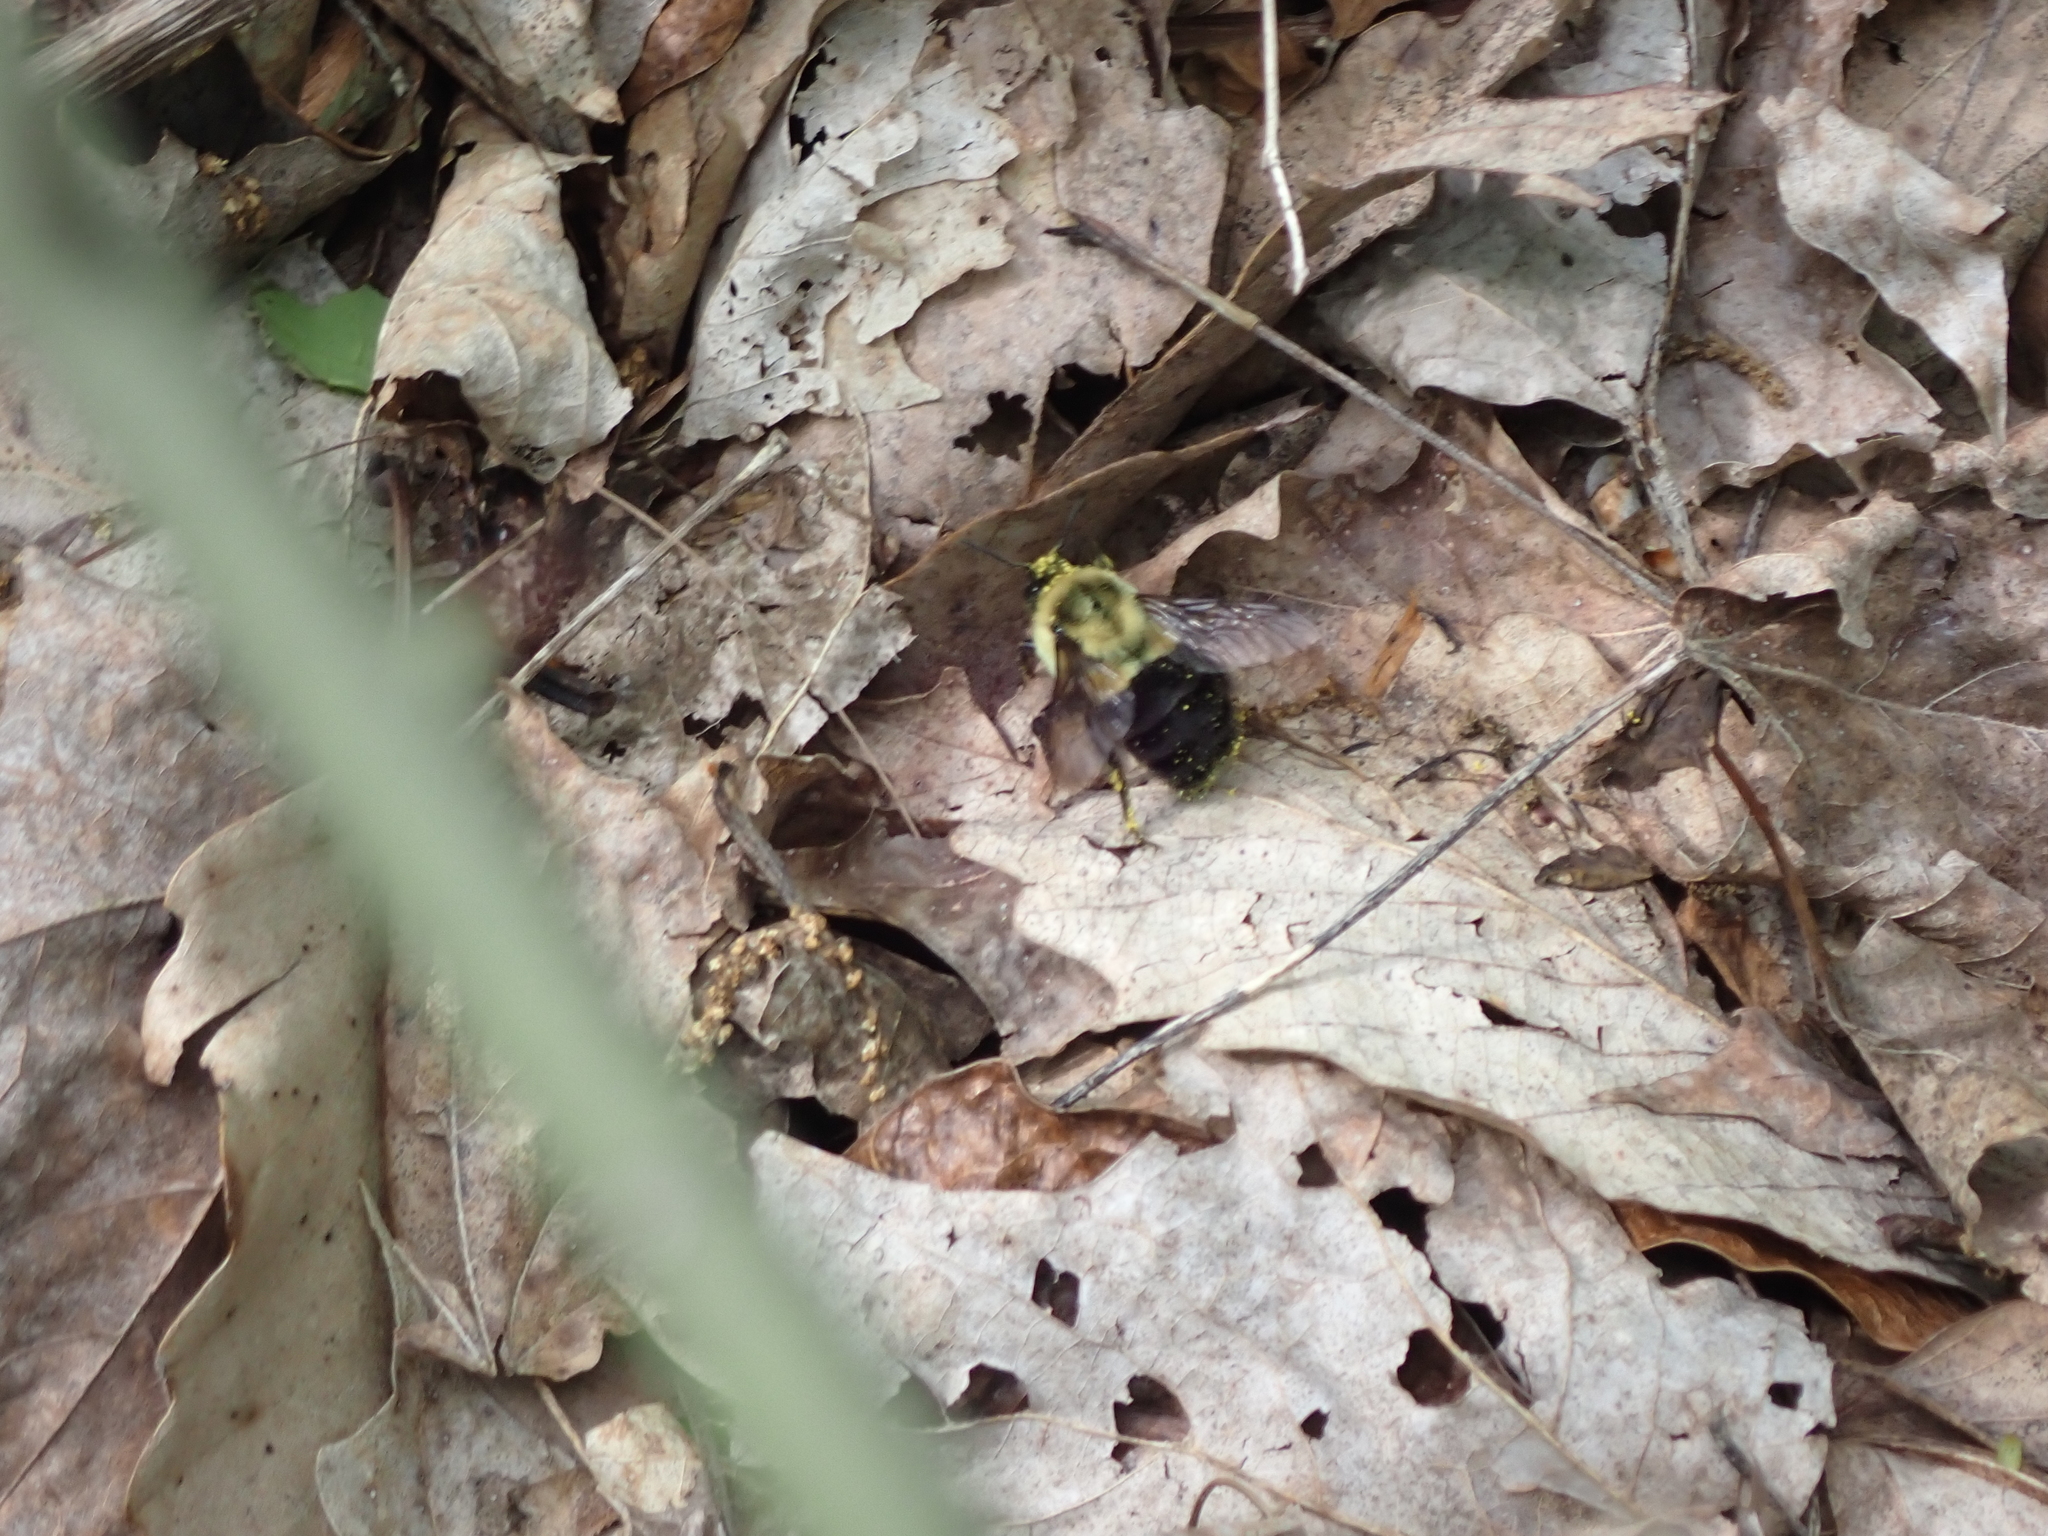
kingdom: Animalia
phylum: Arthropoda
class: Insecta
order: Hymenoptera
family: Apidae
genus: Bombus
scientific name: Bombus impatiens
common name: Common eastern bumble bee
